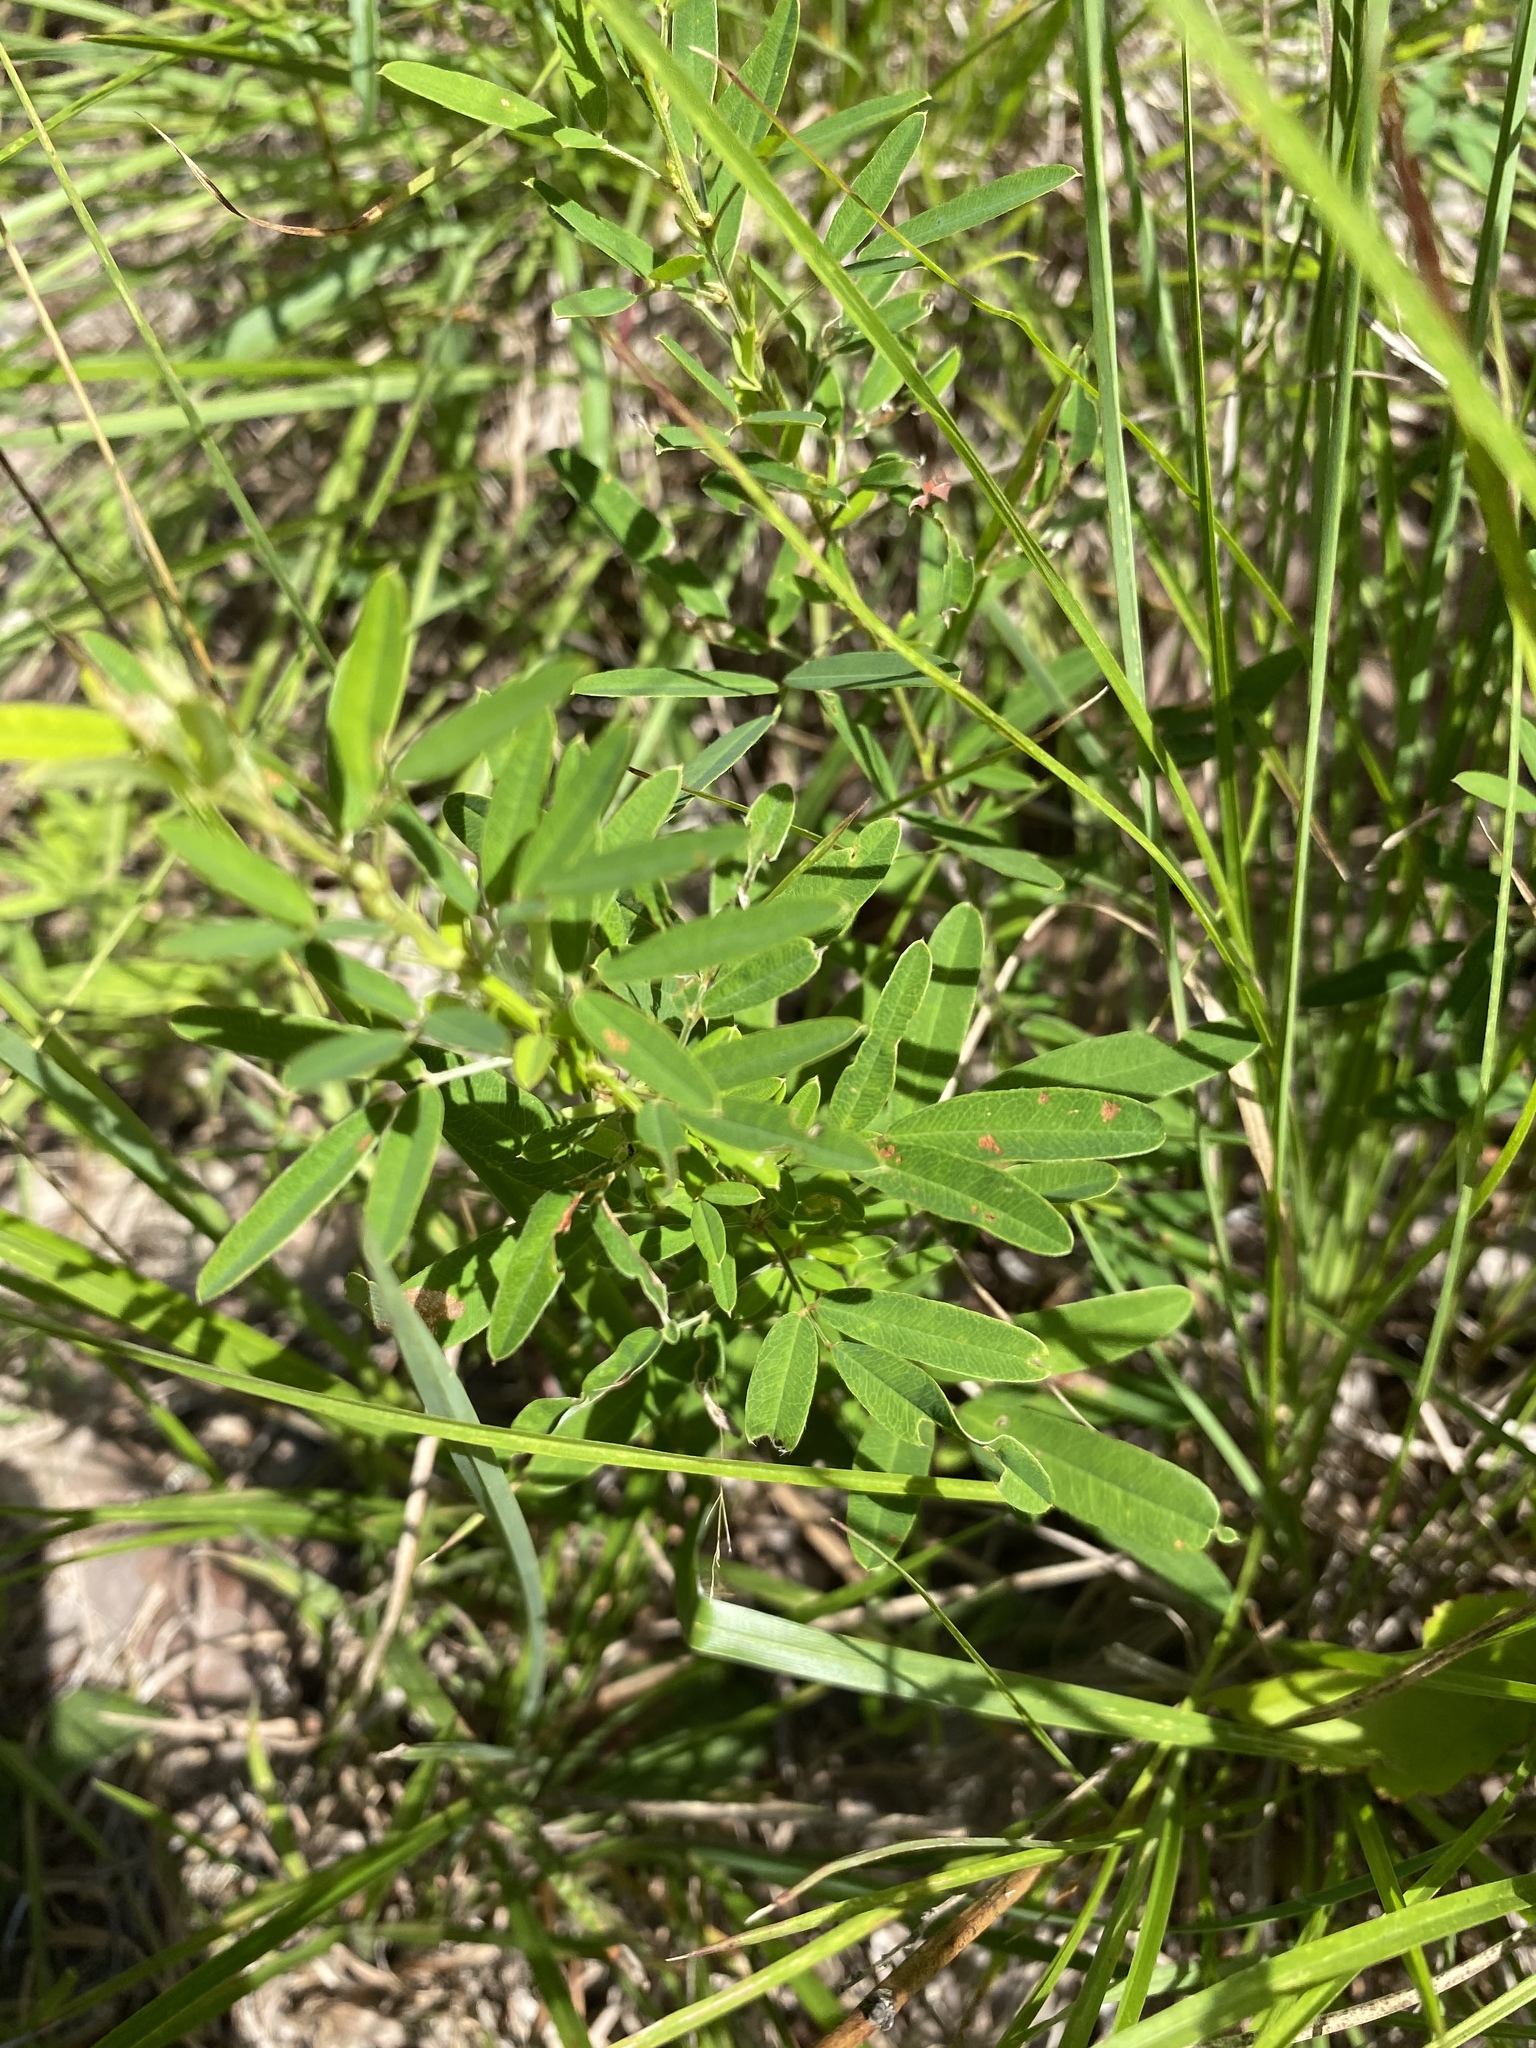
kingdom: Plantae
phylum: Tracheophyta
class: Magnoliopsida
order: Fabales
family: Fabaceae
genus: Lespedeza
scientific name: Lespedeza virginica
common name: Slender bush-clover
